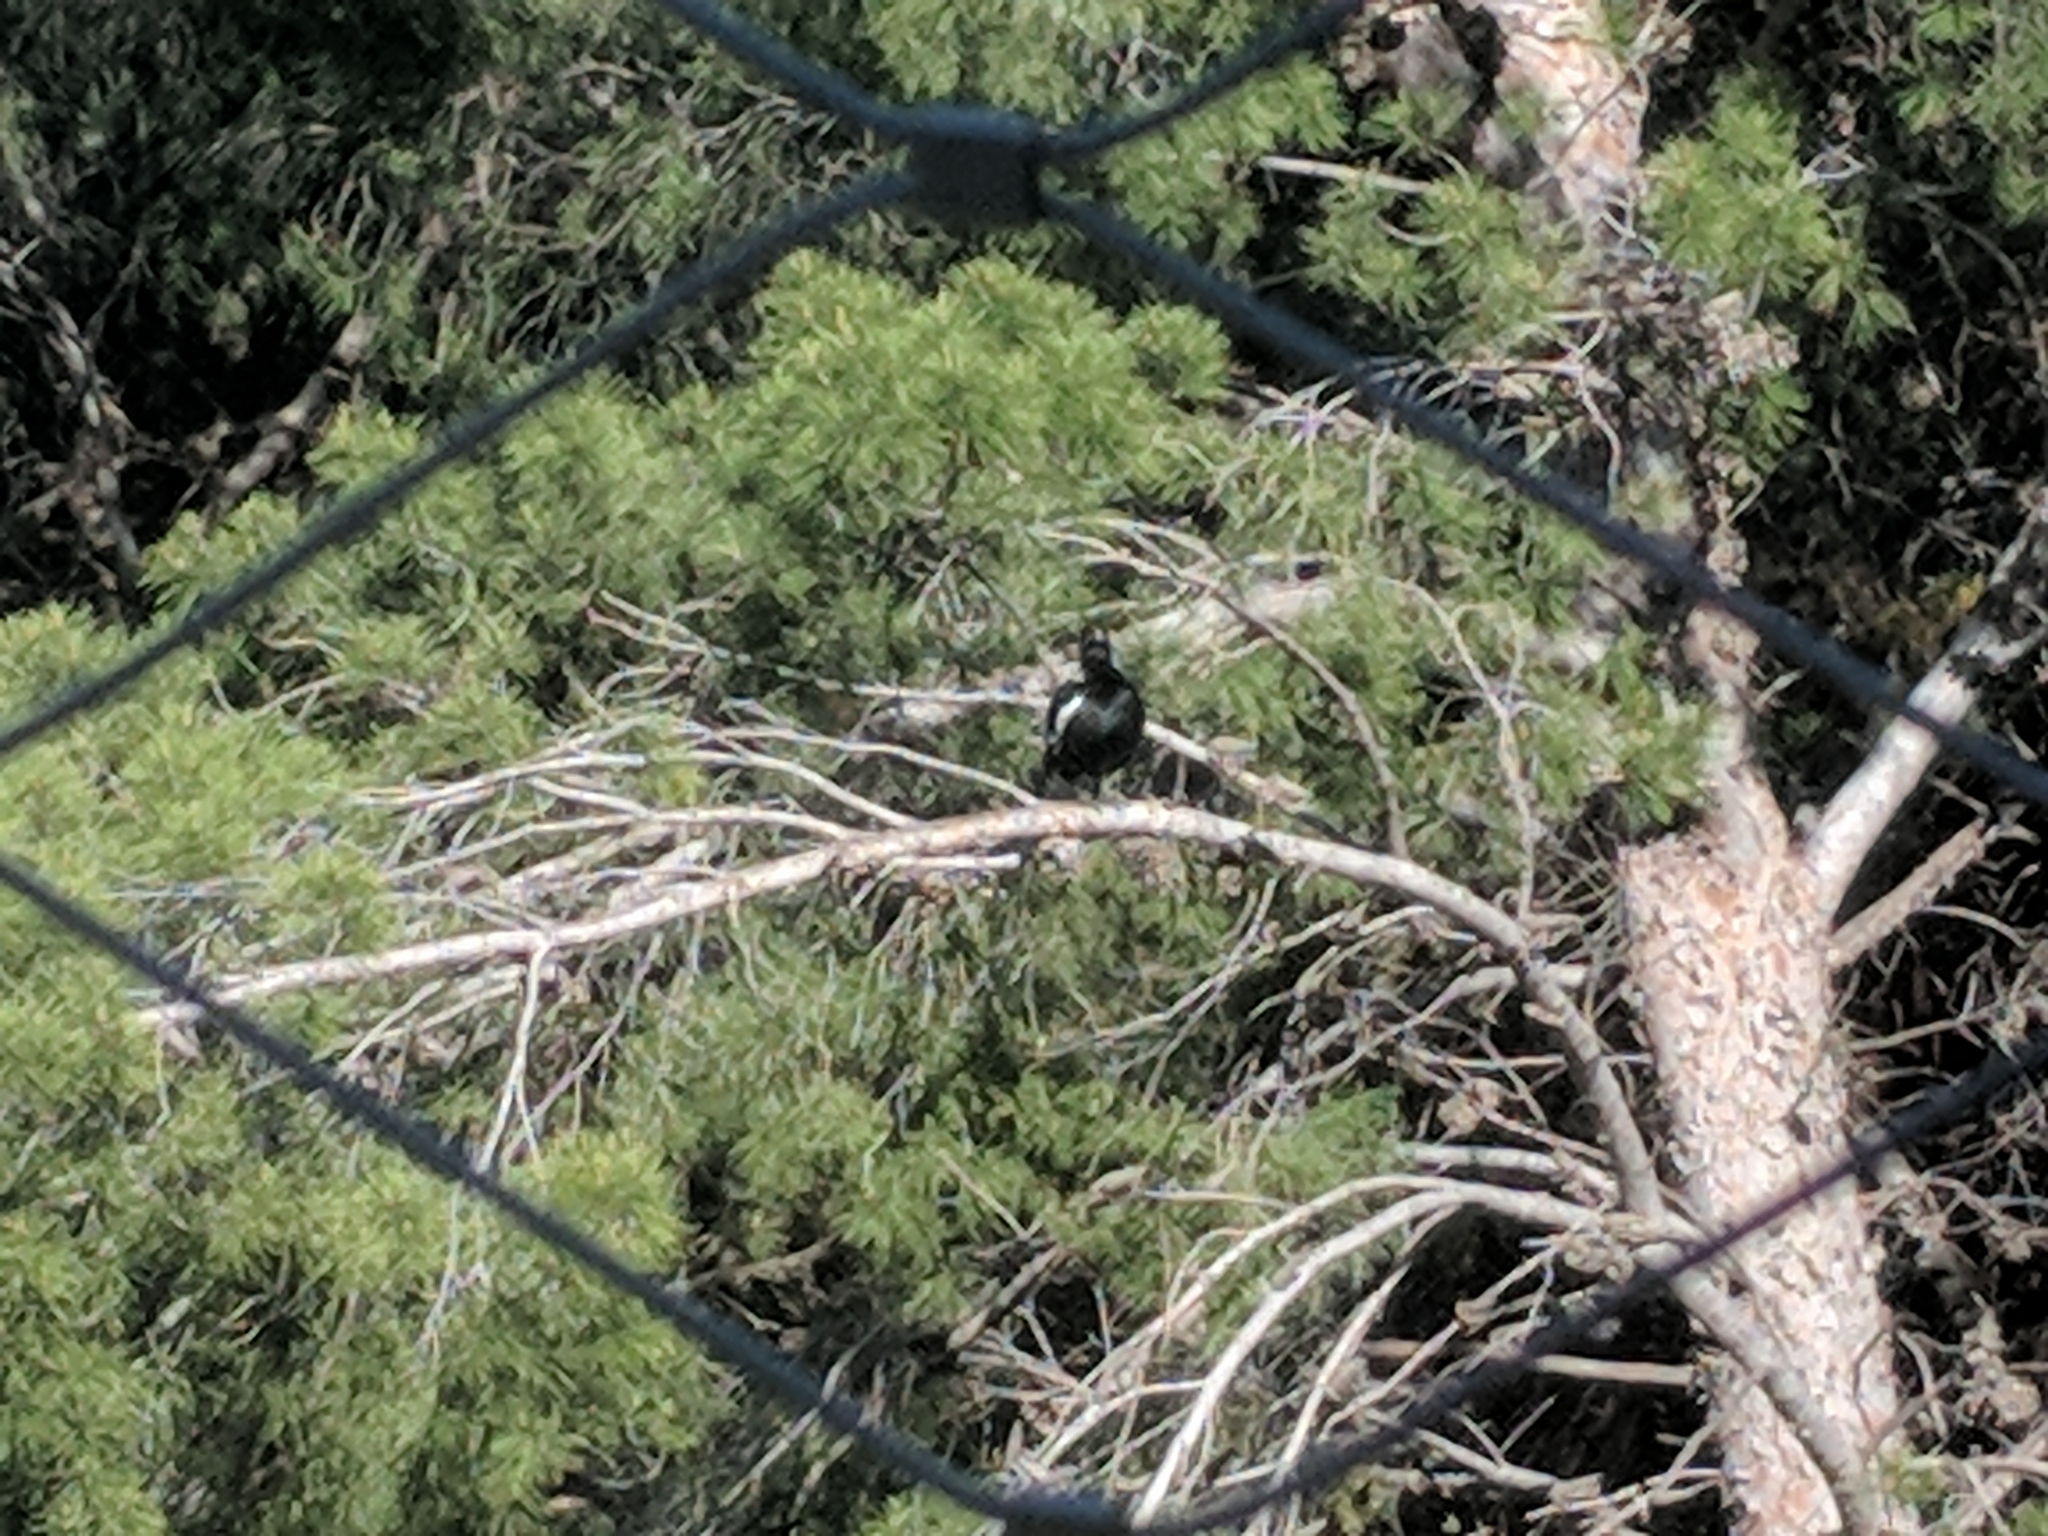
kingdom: Animalia
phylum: Chordata
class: Aves
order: Passeriformes
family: Cracticidae
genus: Gymnorhina
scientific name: Gymnorhina tibicen
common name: Australian magpie
